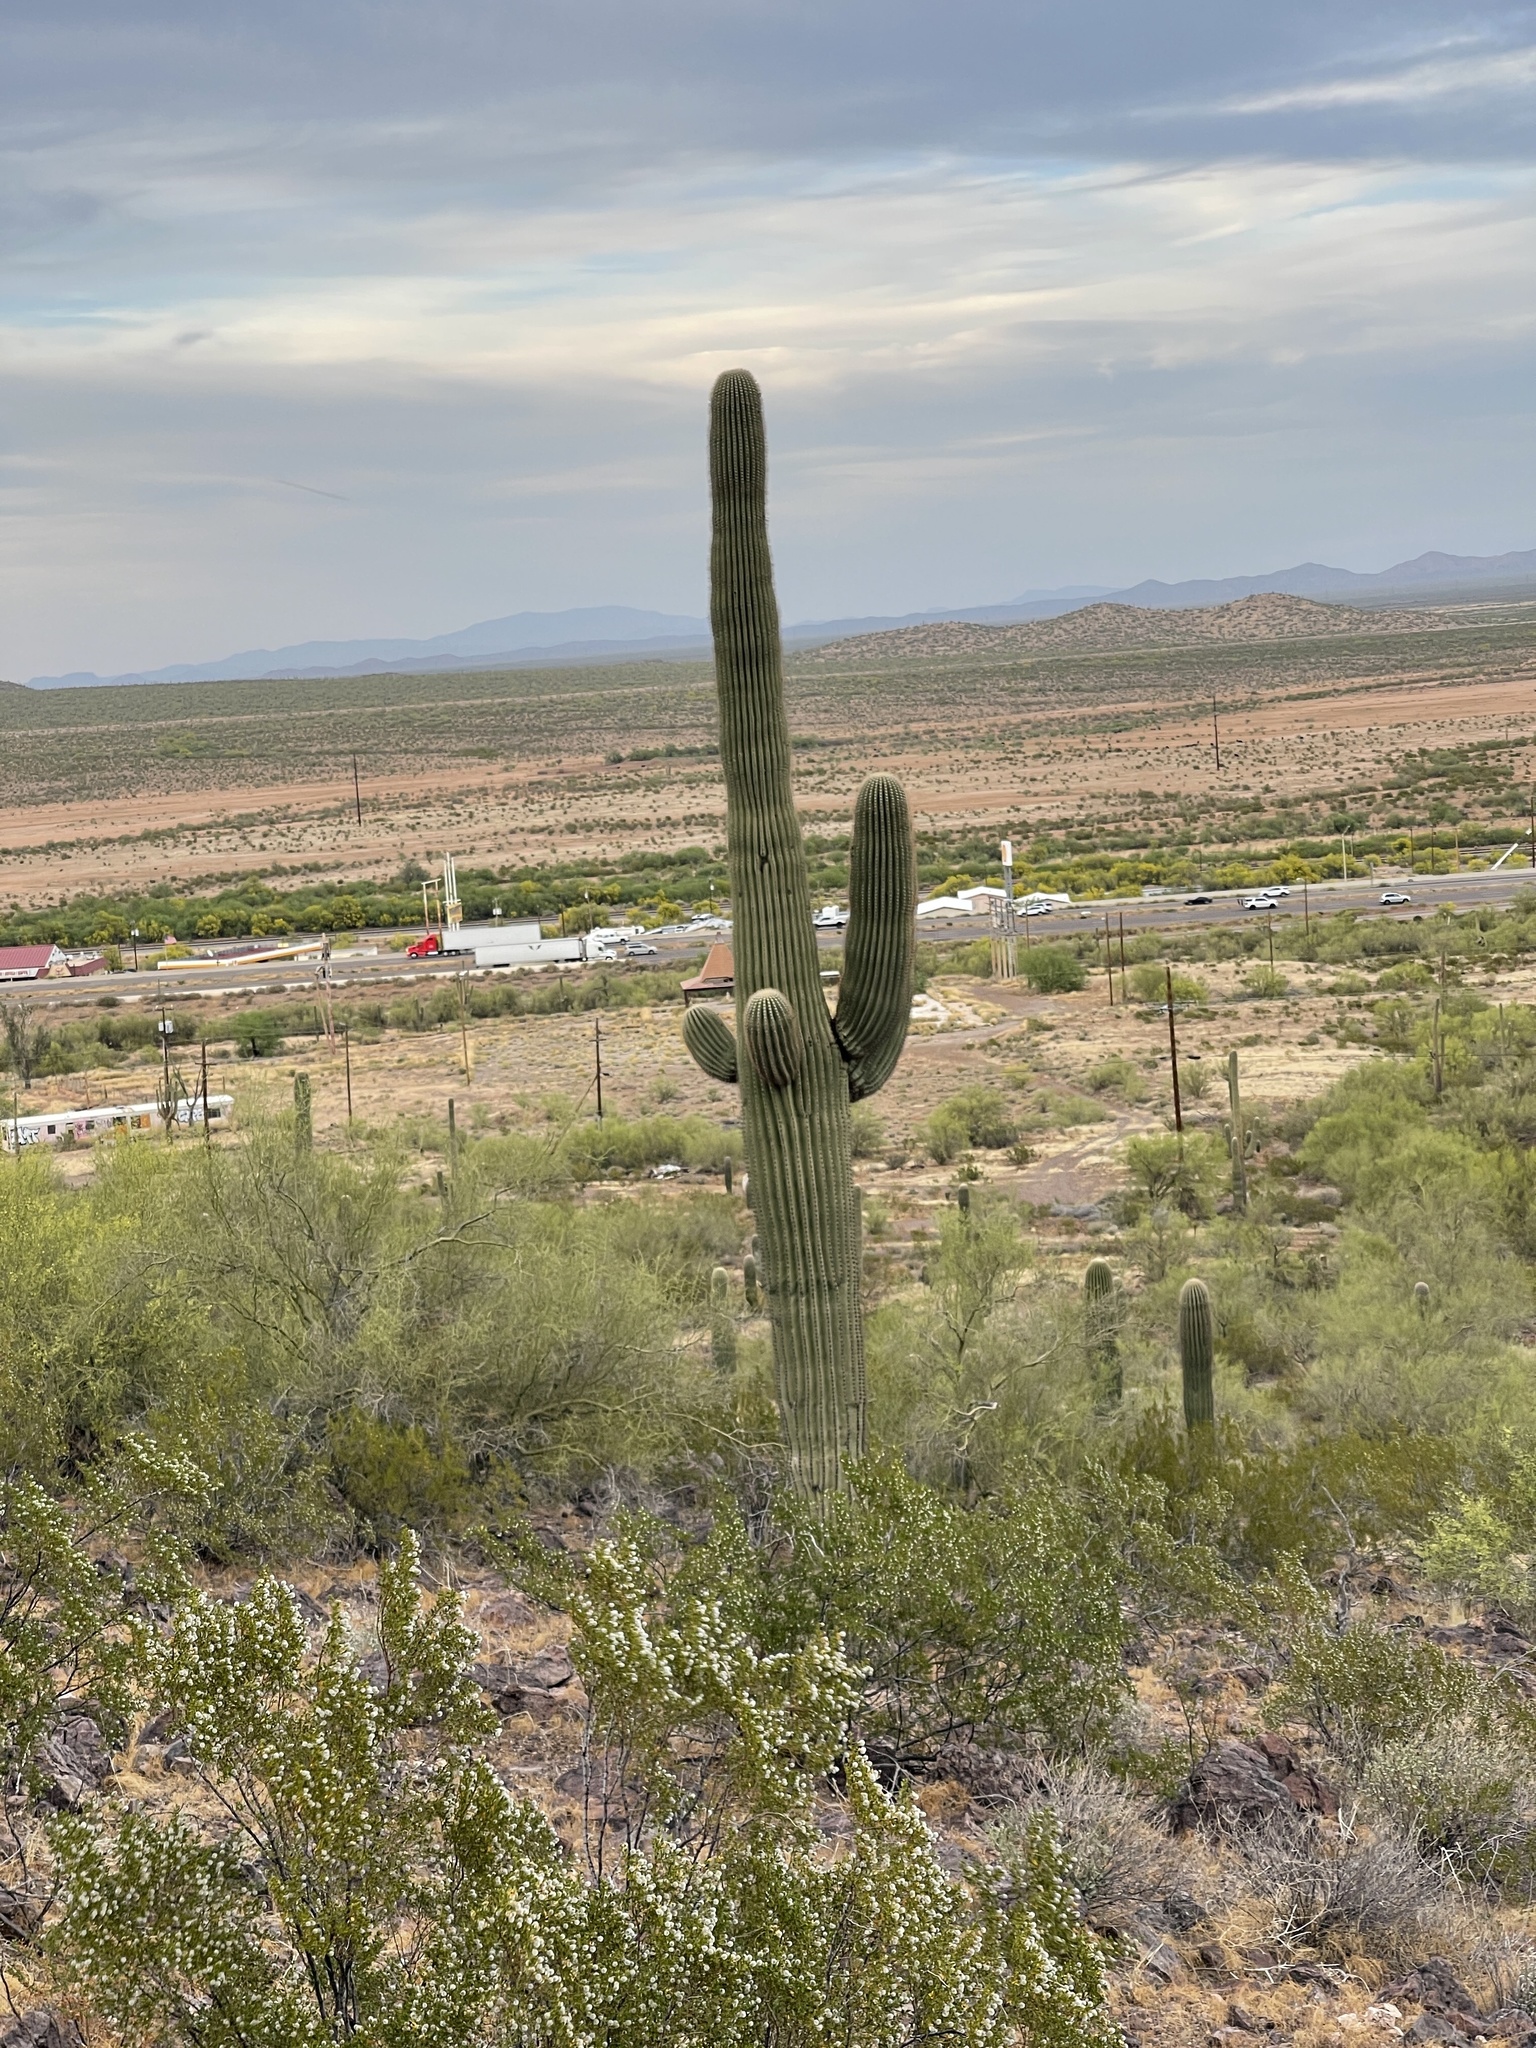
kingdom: Plantae
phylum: Tracheophyta
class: Magnoliopsida
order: Caryophyllales
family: Cactaceae
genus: Carnegiea
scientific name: Carnegiea gigantea
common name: Saguaro
